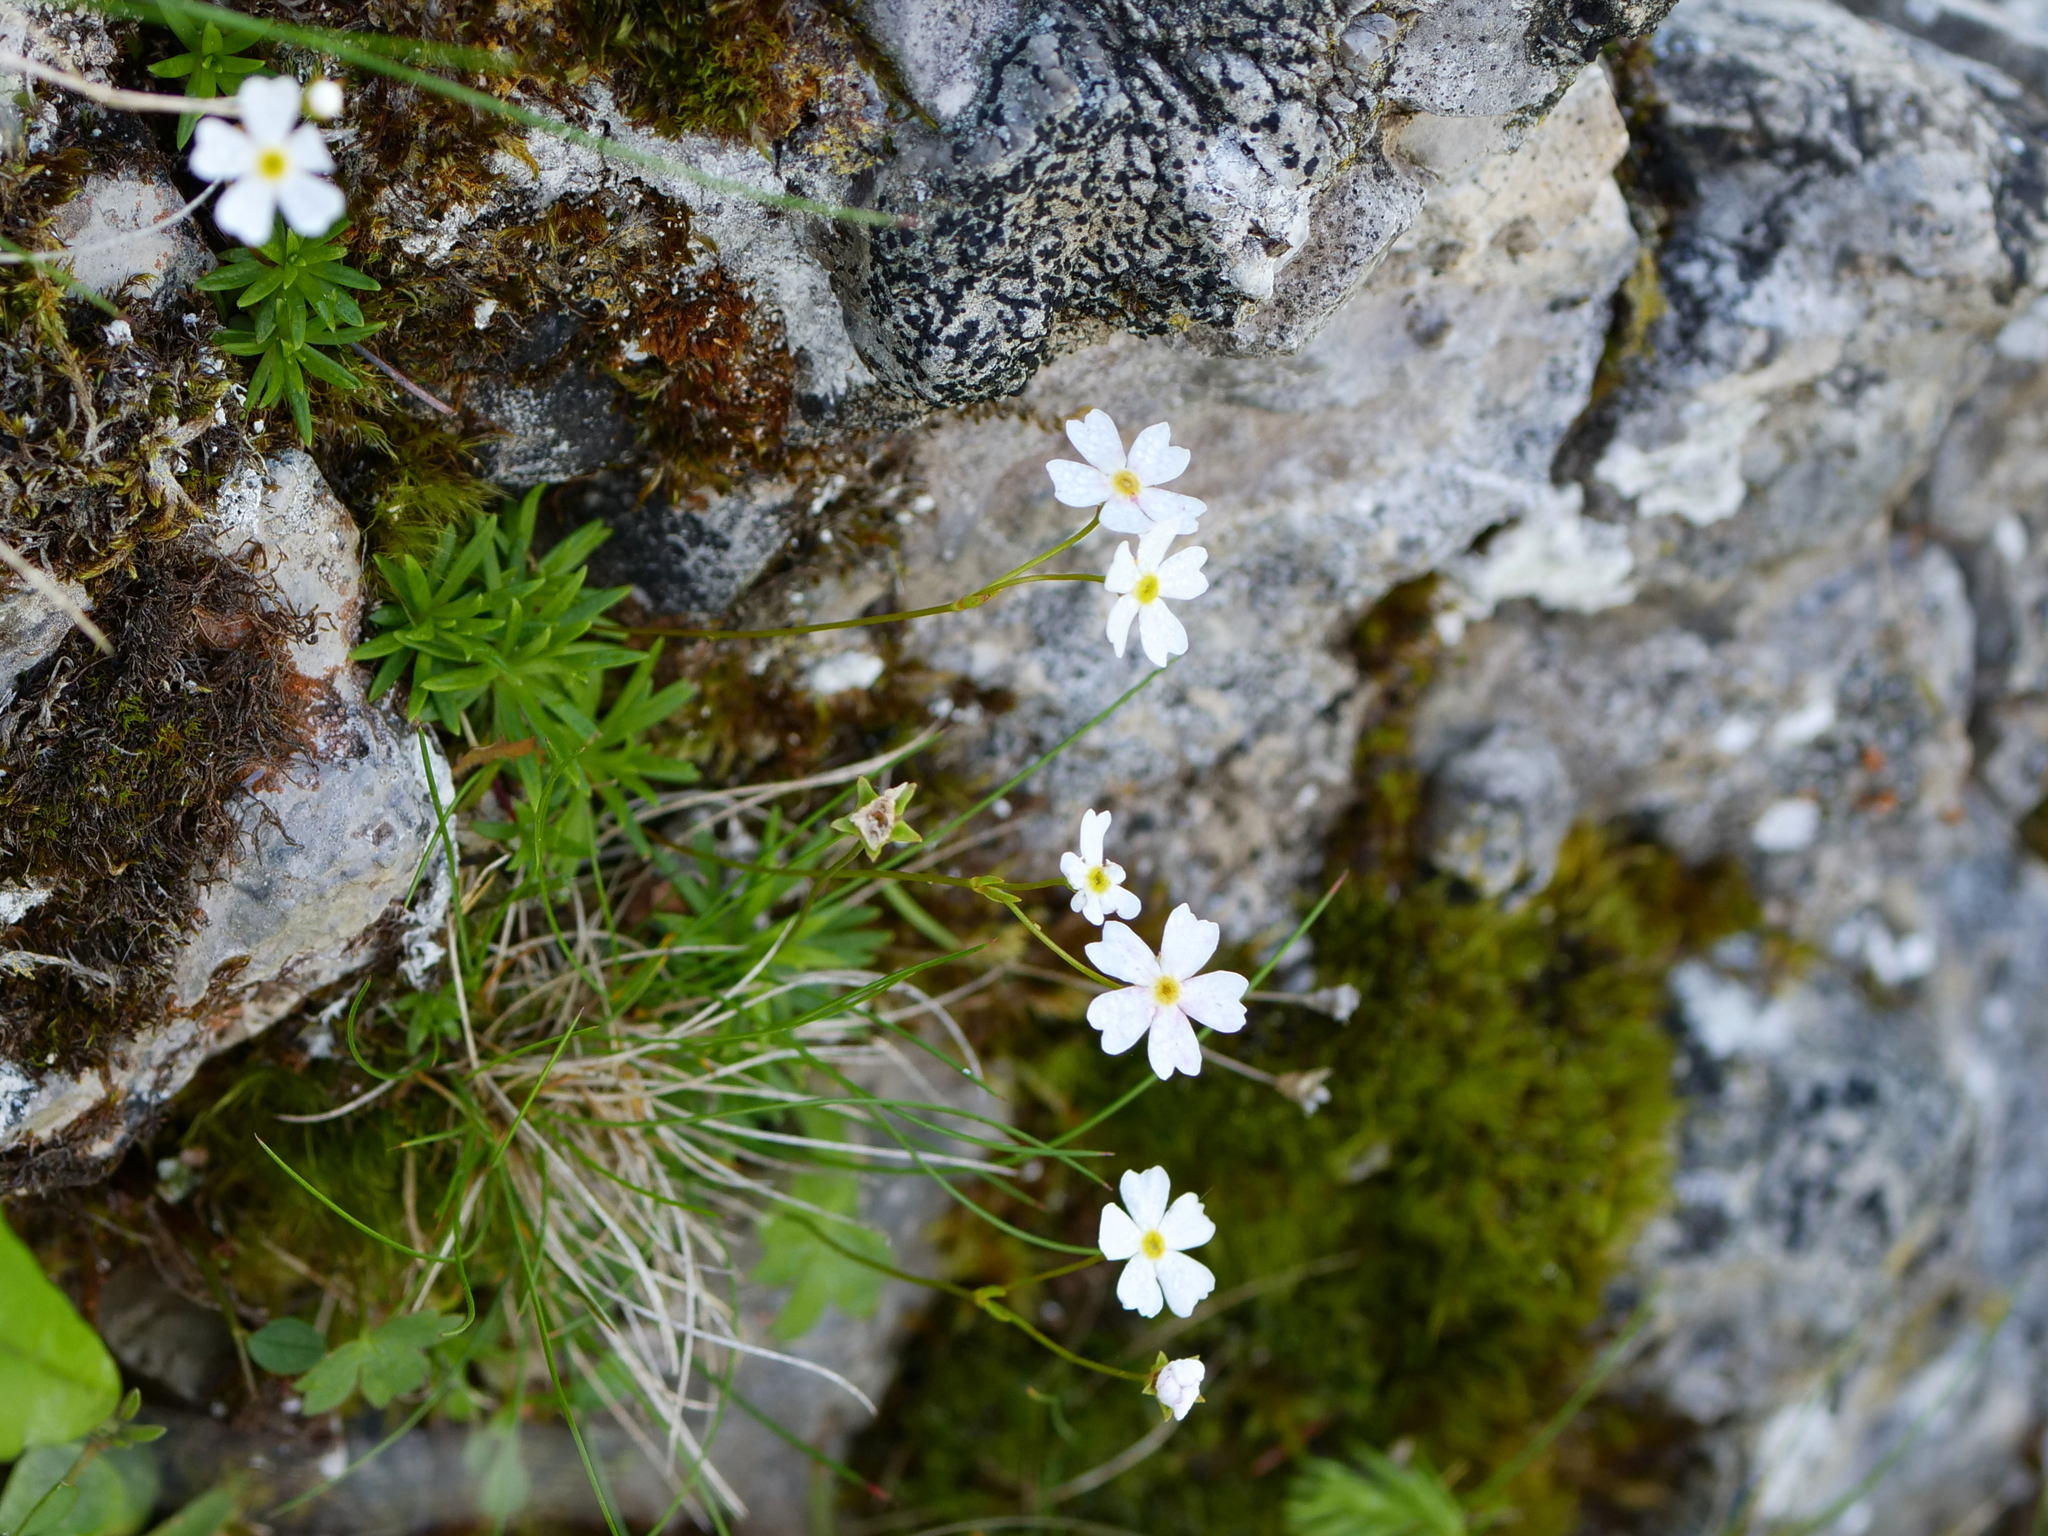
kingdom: Plantae
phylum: Tracheophyta
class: Magnoliopsida
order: Ericales
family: Primulaceae
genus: Androsace
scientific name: Androsace lactea
